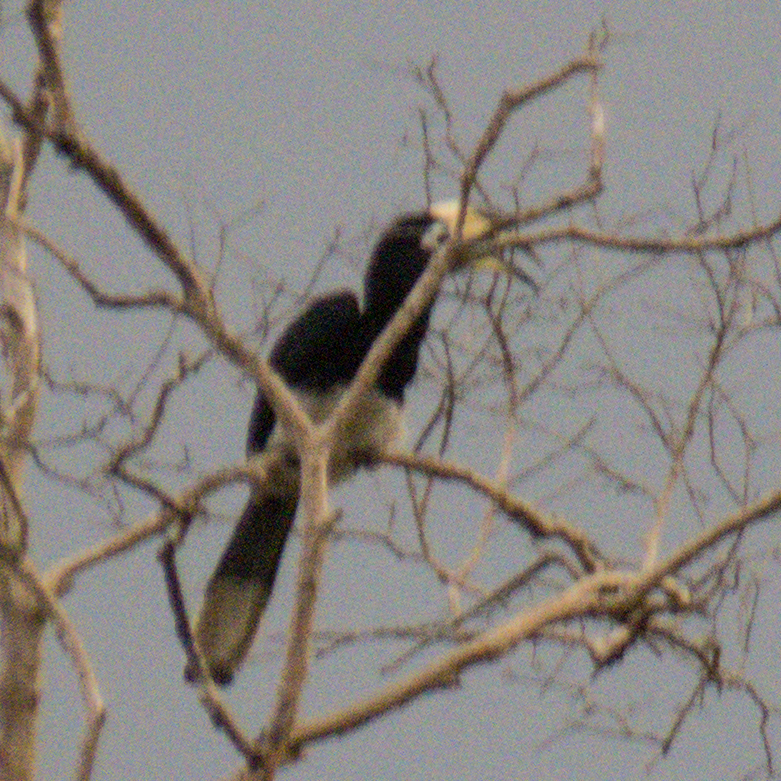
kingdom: Animalia
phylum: Chordata
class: Aves
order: Bucerotiformes
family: Bucerotidae
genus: Anthracoceros
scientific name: Anthracoceros albirostris
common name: Oriental pied-hornbill
